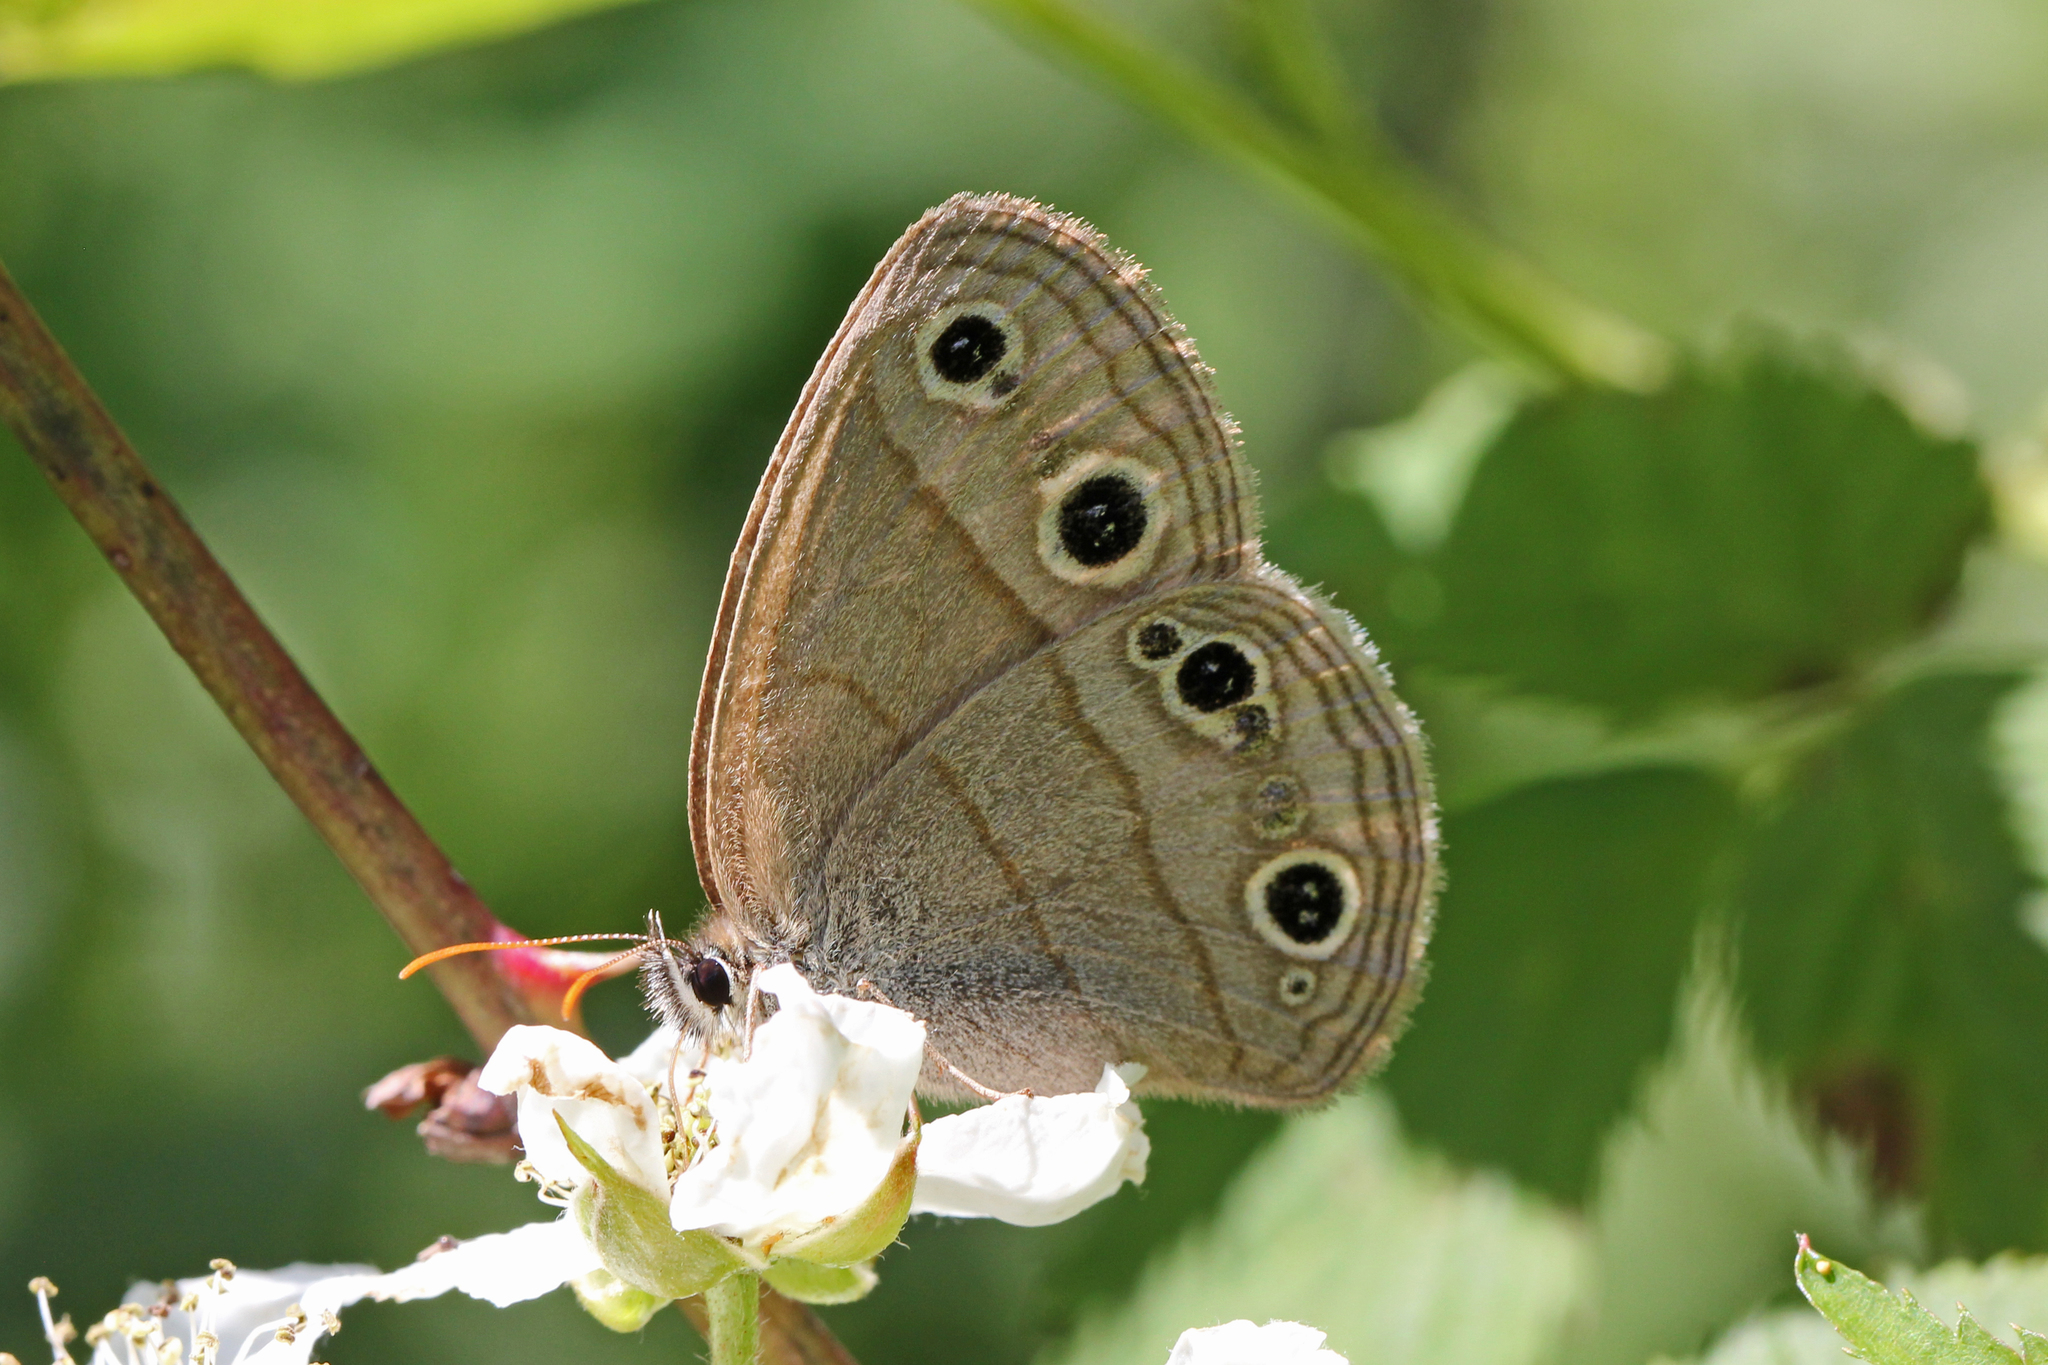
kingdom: Animalia
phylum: Arthropoda
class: Insecta
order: Lepidoptera
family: Nymphalidae
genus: Euptychia
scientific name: Euptychia cymela
